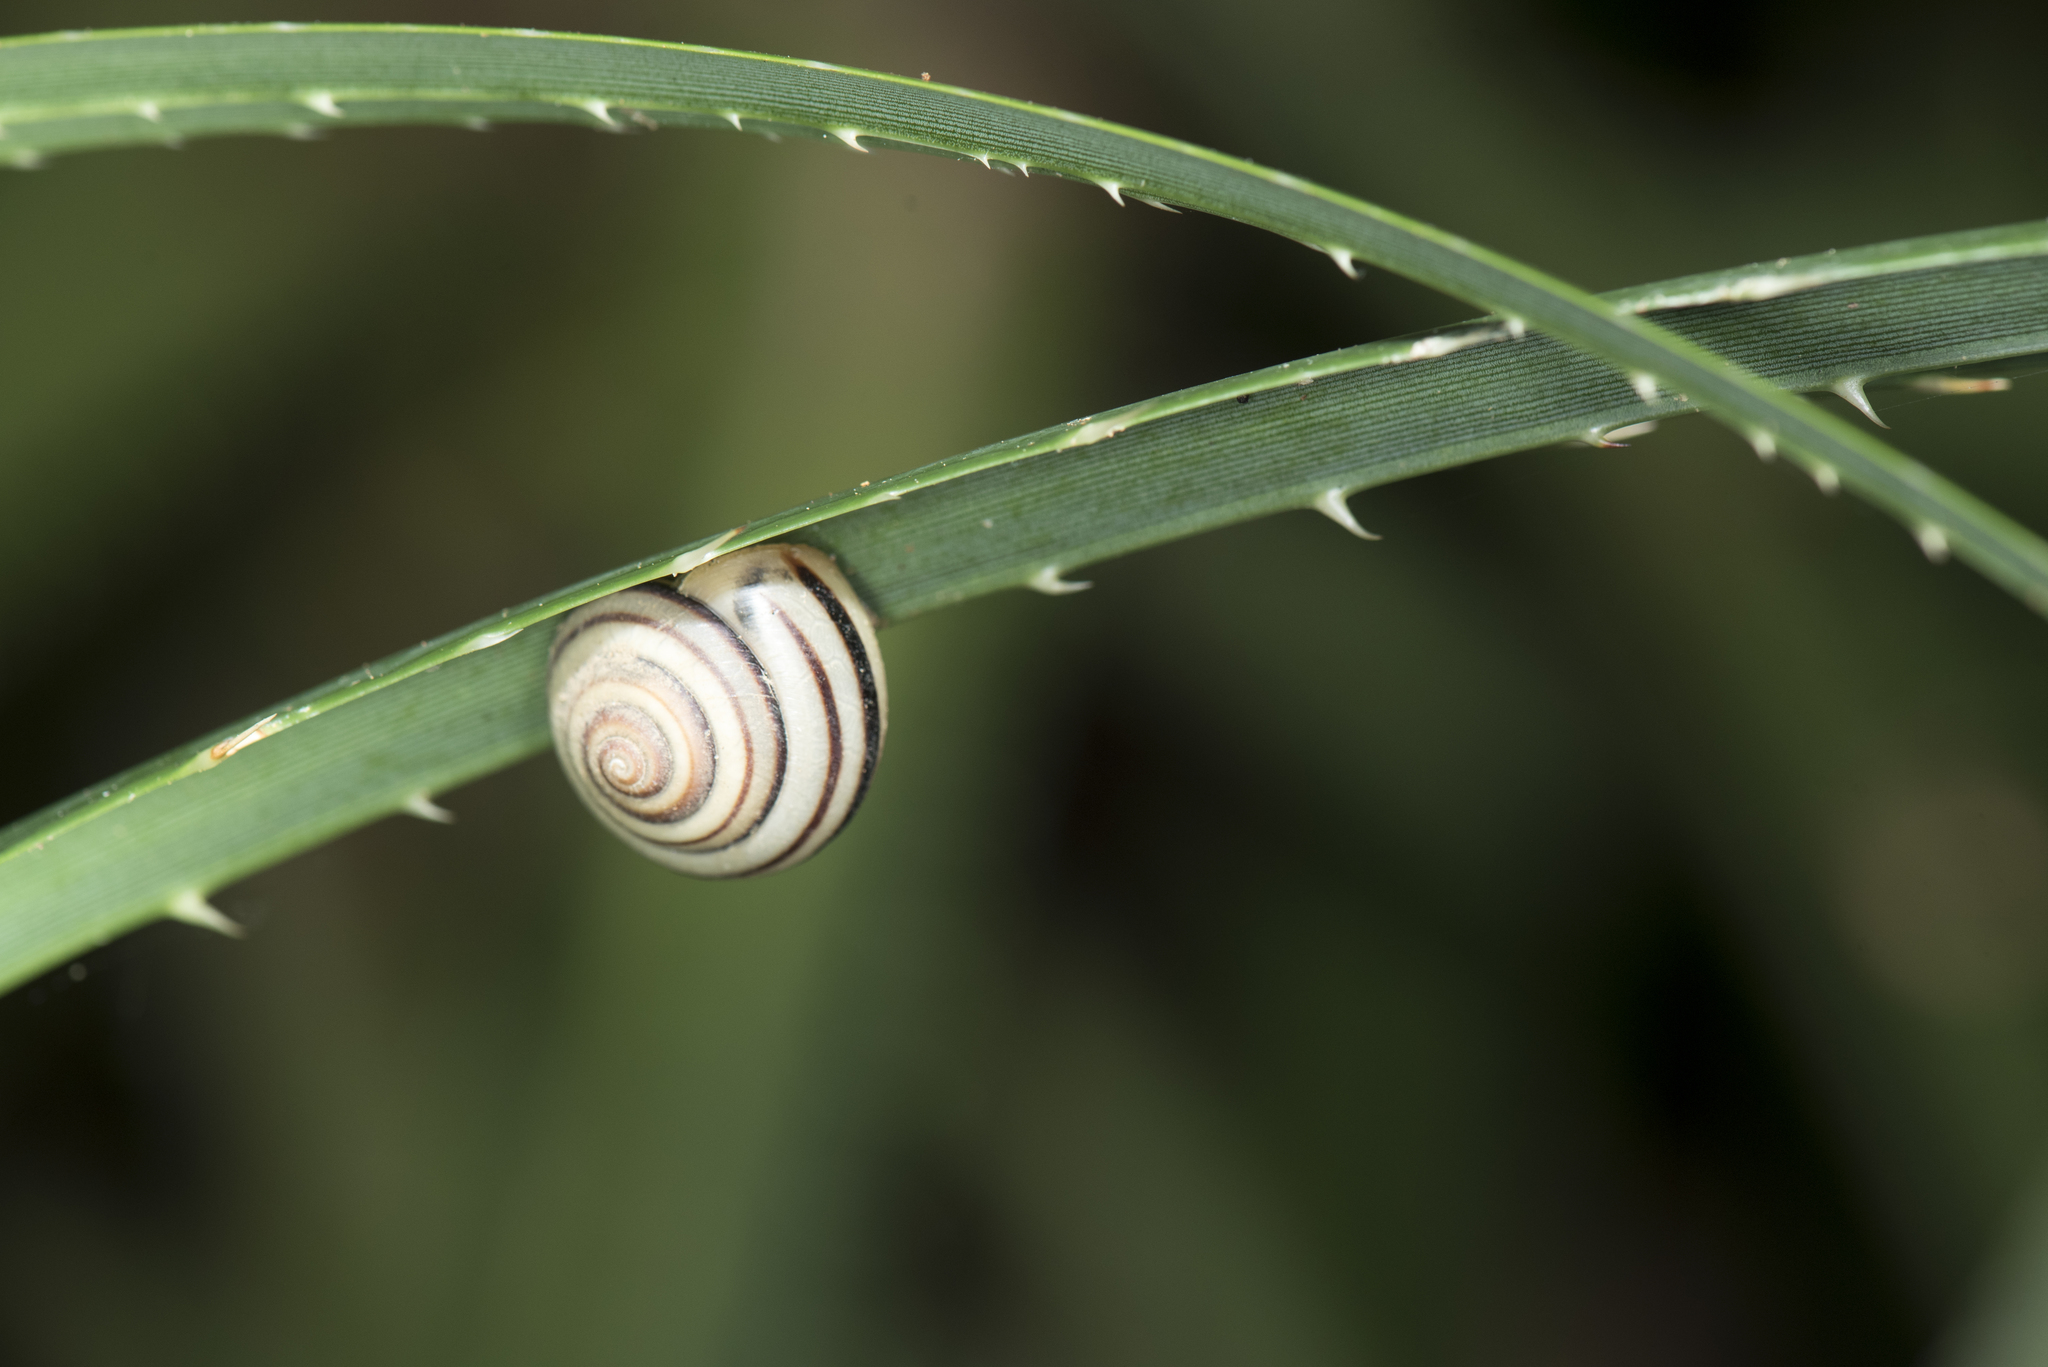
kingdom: Animalia
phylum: Mollusca
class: Gastropoda
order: Stylommatophora
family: Camaenidae
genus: Pancala
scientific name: Pancala batanica
